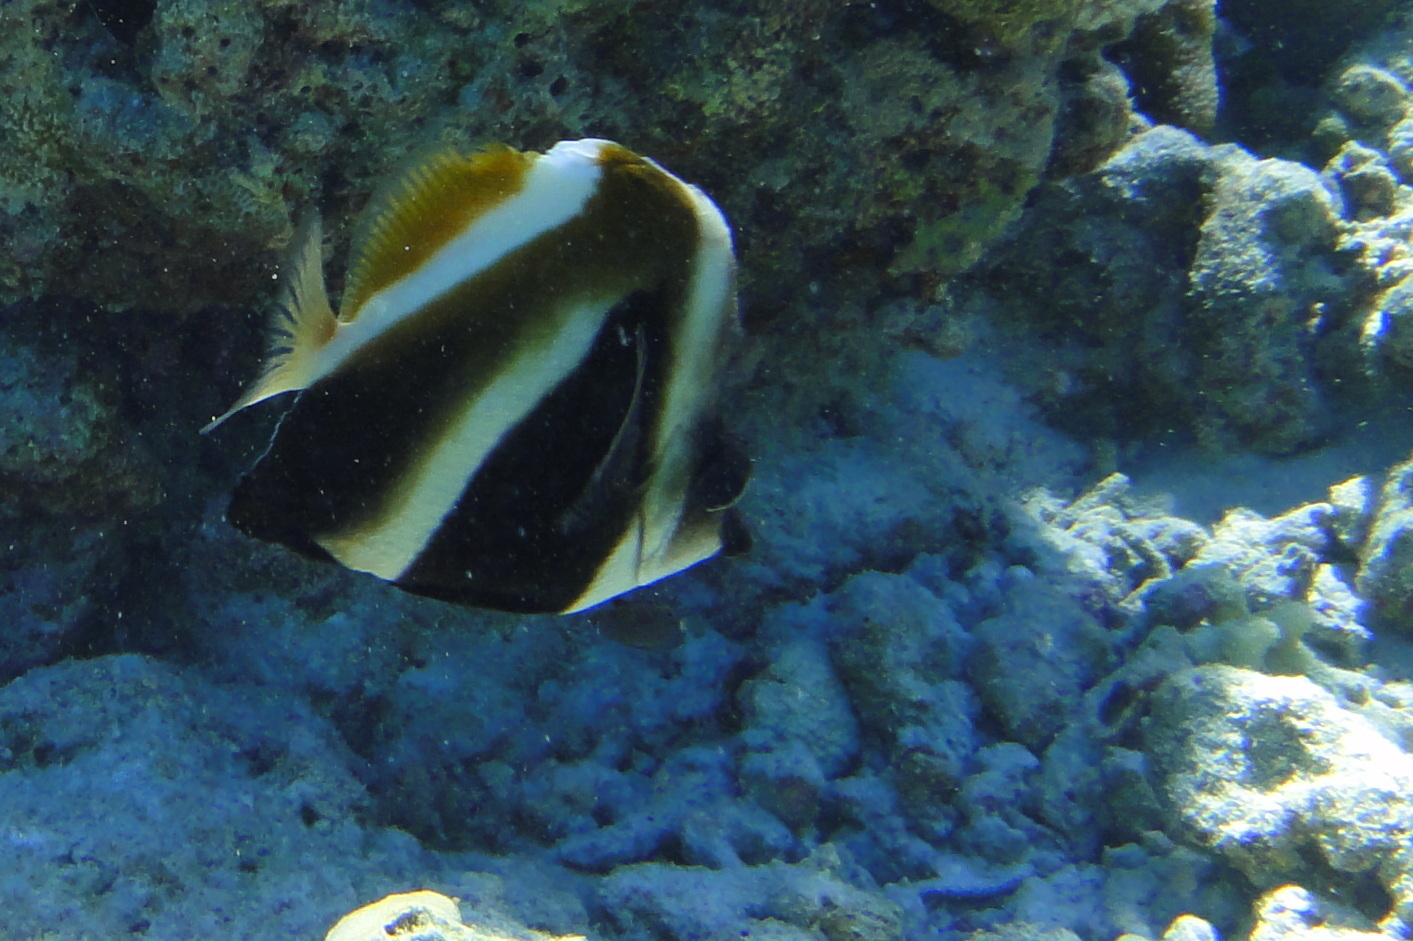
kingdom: Animalia
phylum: Chordata
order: Perciformes
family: Chaetodontidae
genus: Heniochus
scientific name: Heniochus pleurotaenia
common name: Indian ocean bannerfish
